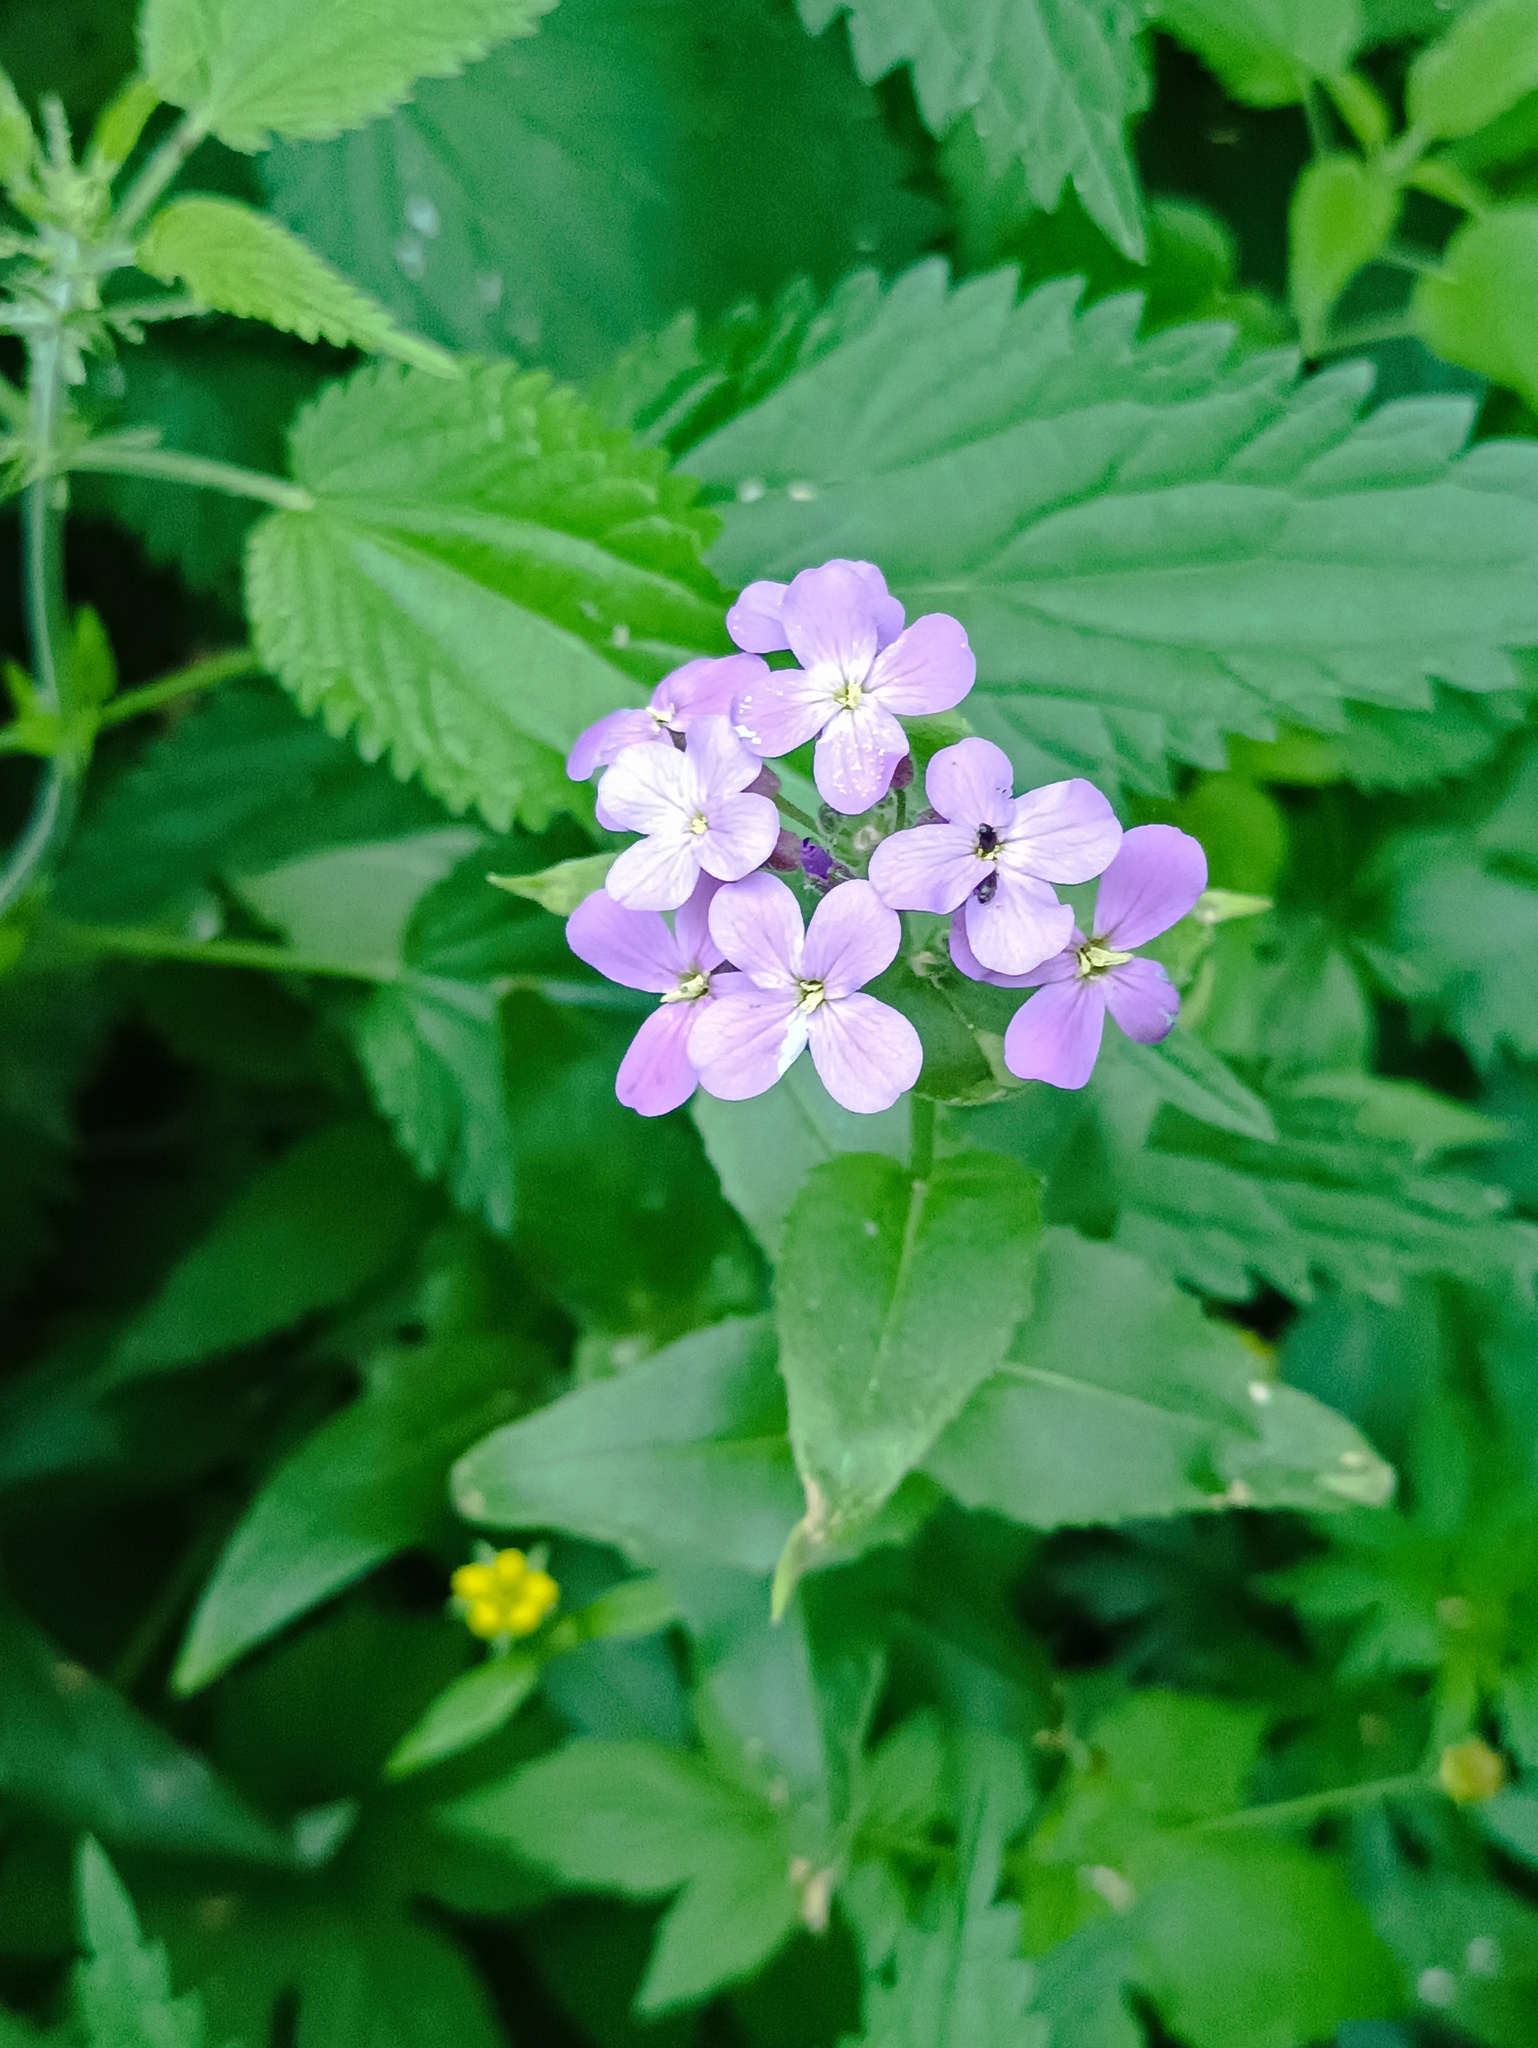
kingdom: Plantae
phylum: Tracheophyta
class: Magnoliopsida
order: Brassicales
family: Brassicaceae
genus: Hesperis
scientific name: Hesperis matronalis
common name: Dame's-violet
